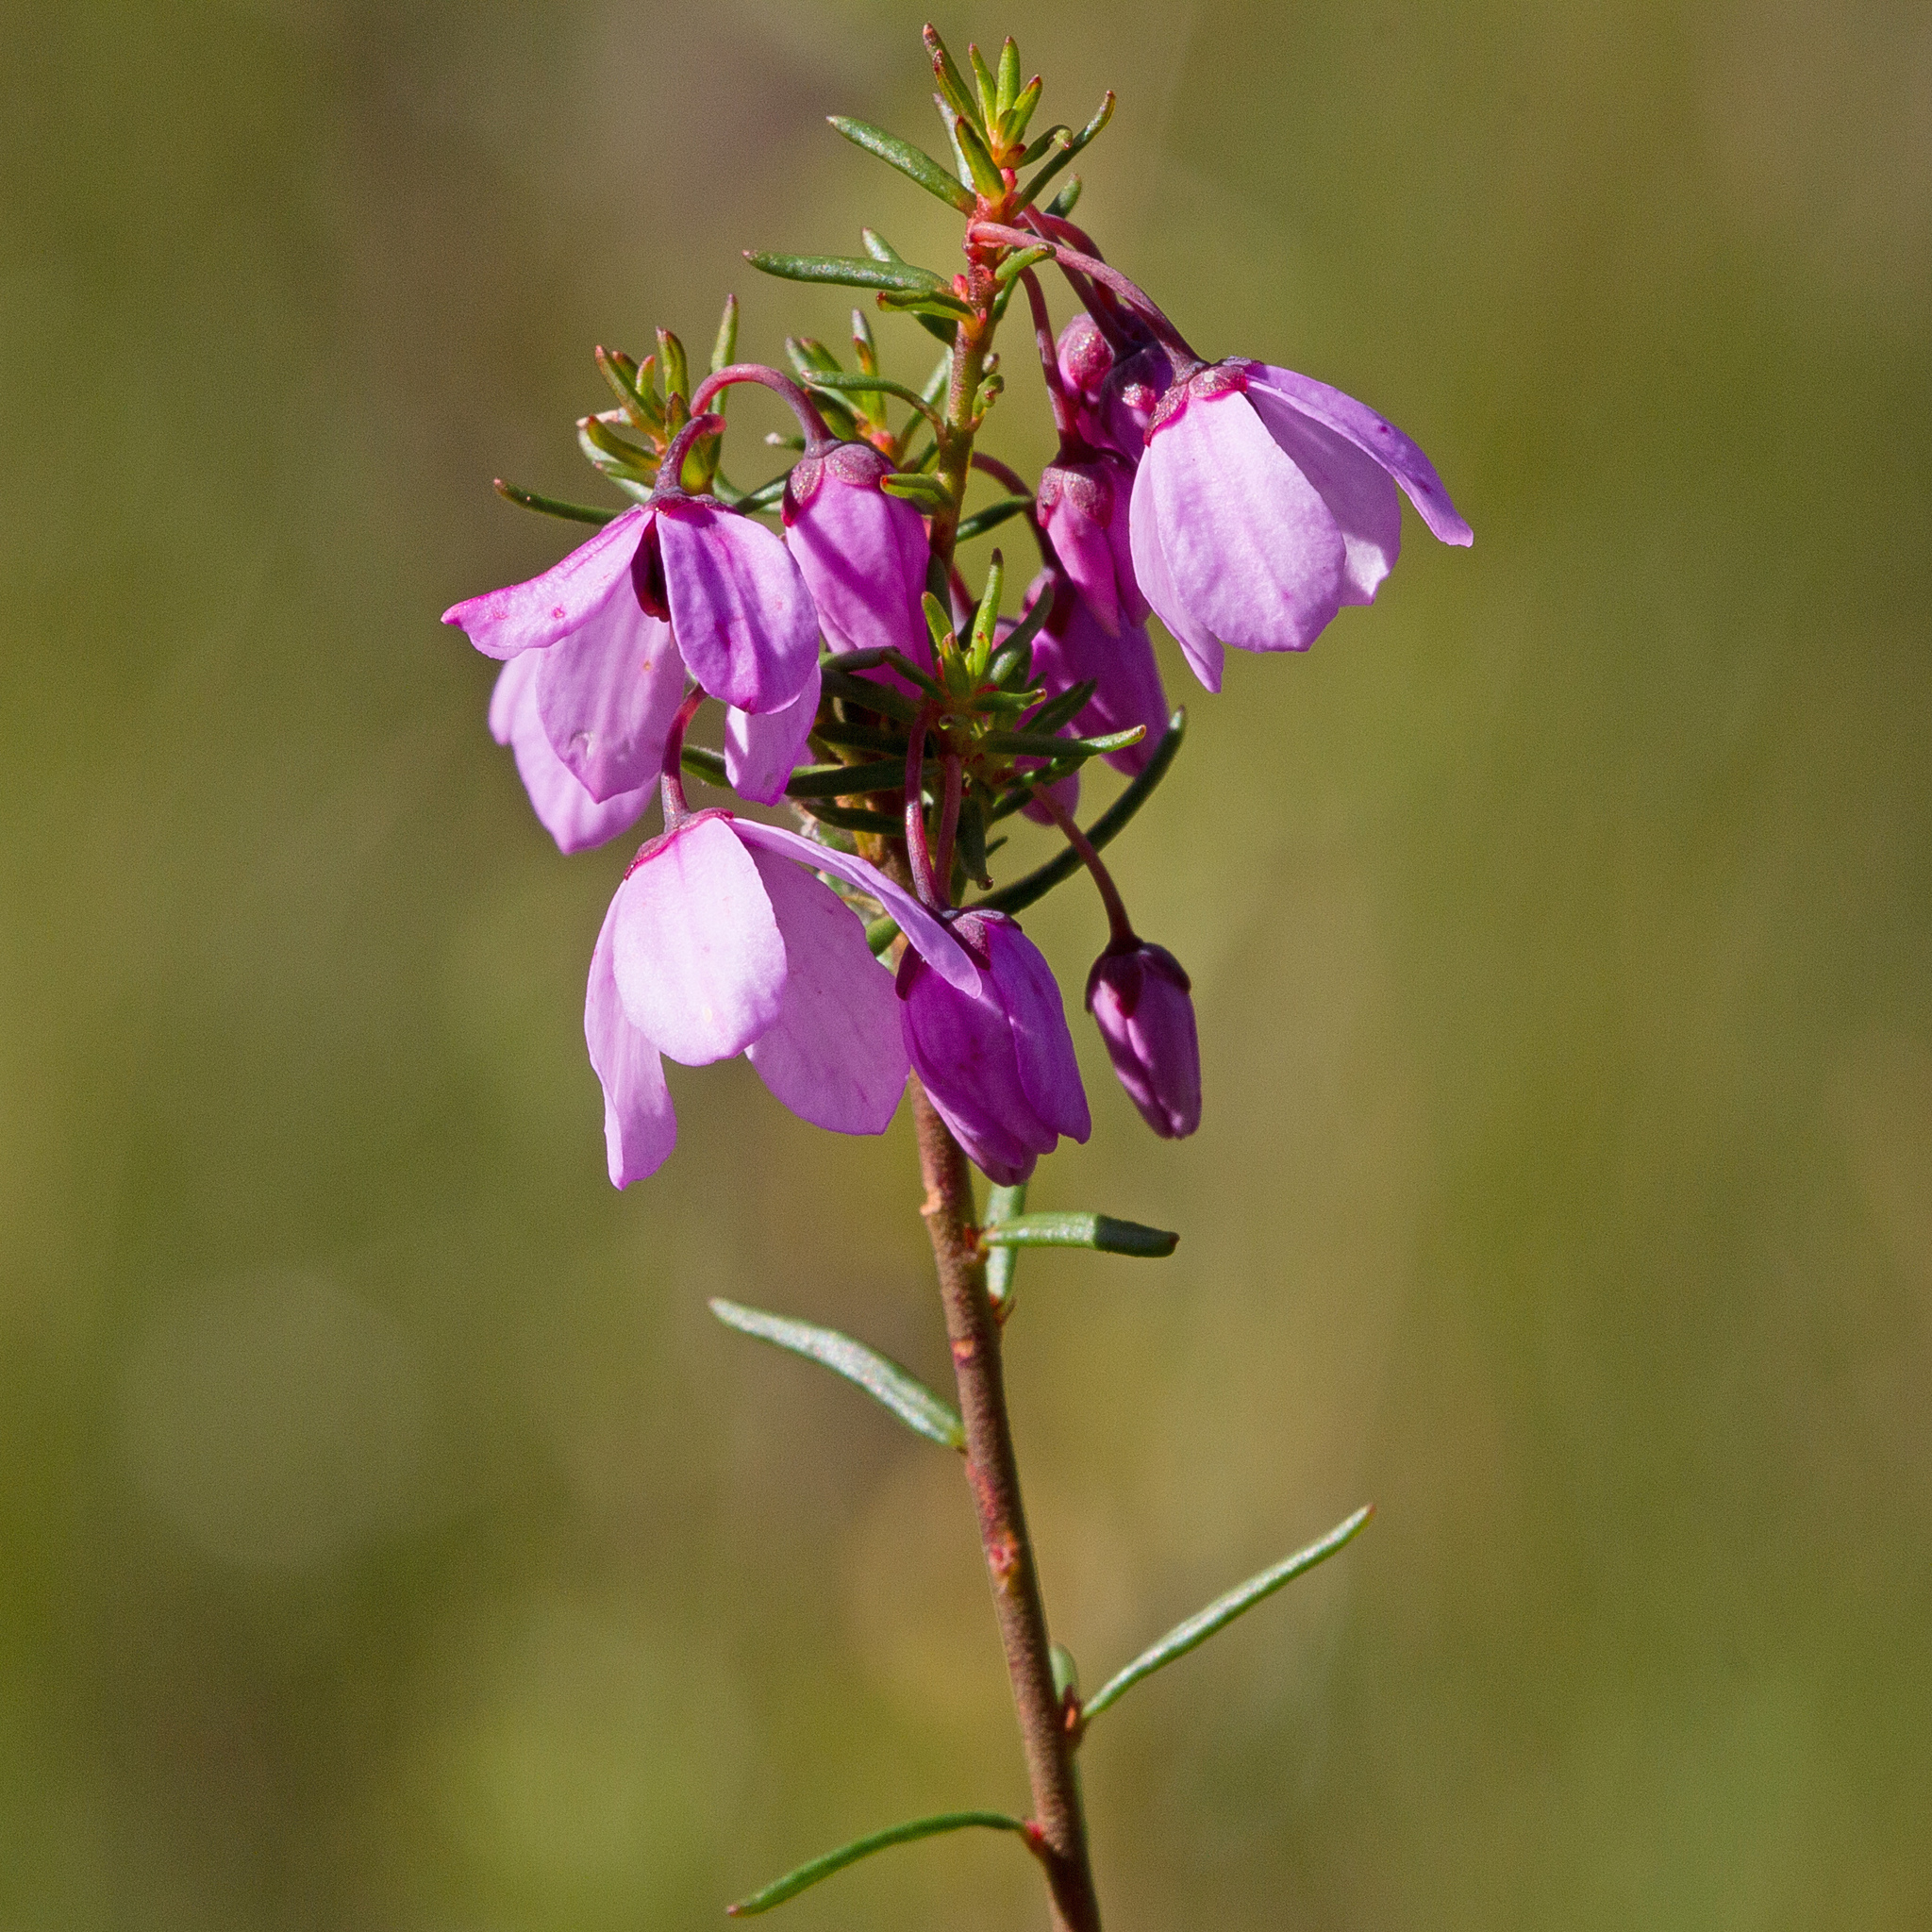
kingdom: Plantae
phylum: Tracheophyta
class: Magnoliopsida
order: Oxalidales
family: Elaeocarpaceae
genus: Tetratheca
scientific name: Tetratheca pilosa
